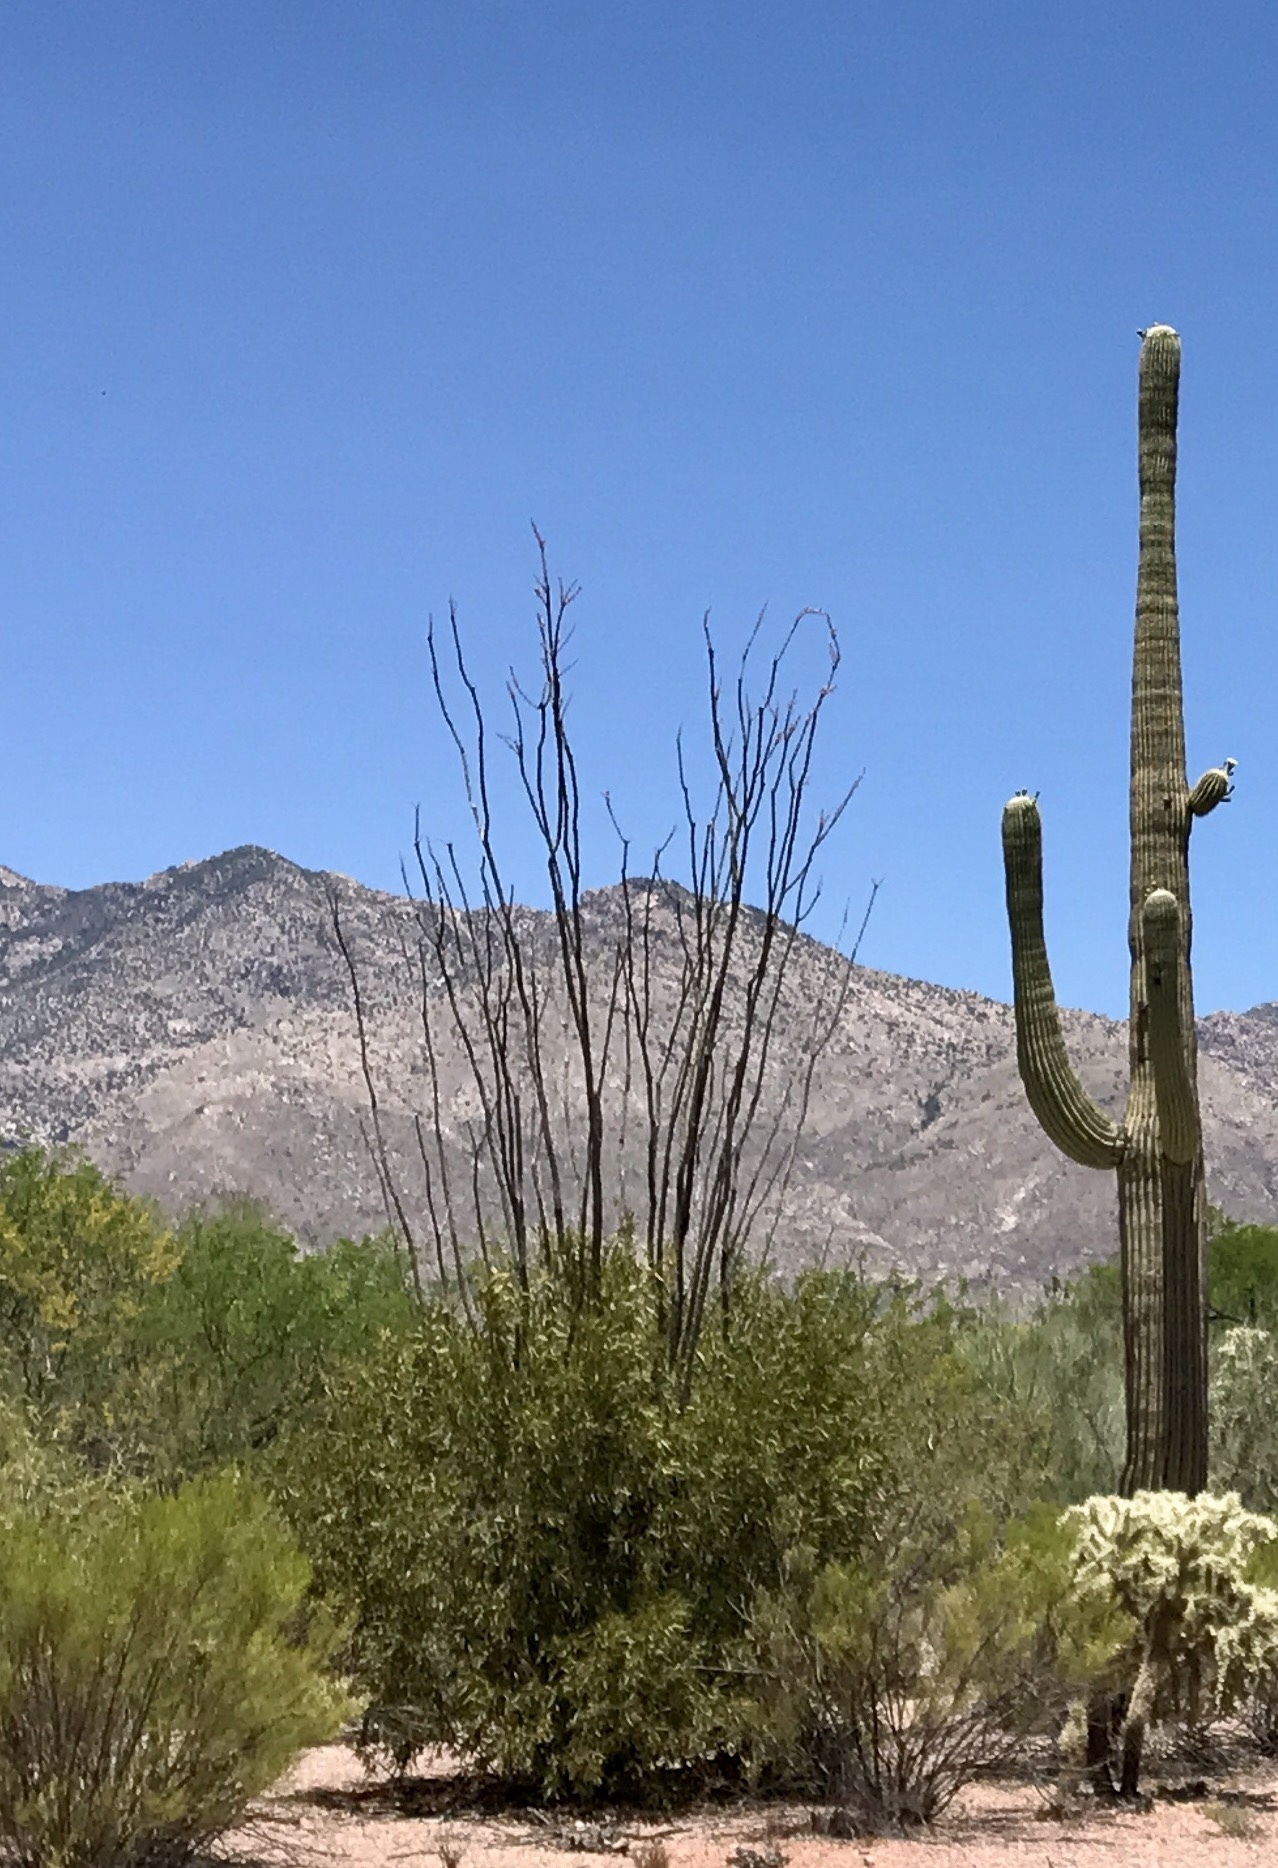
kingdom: Plantae
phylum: Tracheophyta
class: Magnoliopsida
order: Ericales
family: Fouquieriaceae
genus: Fouquieria
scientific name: Fouquieria splendens
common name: Vine-cactus
